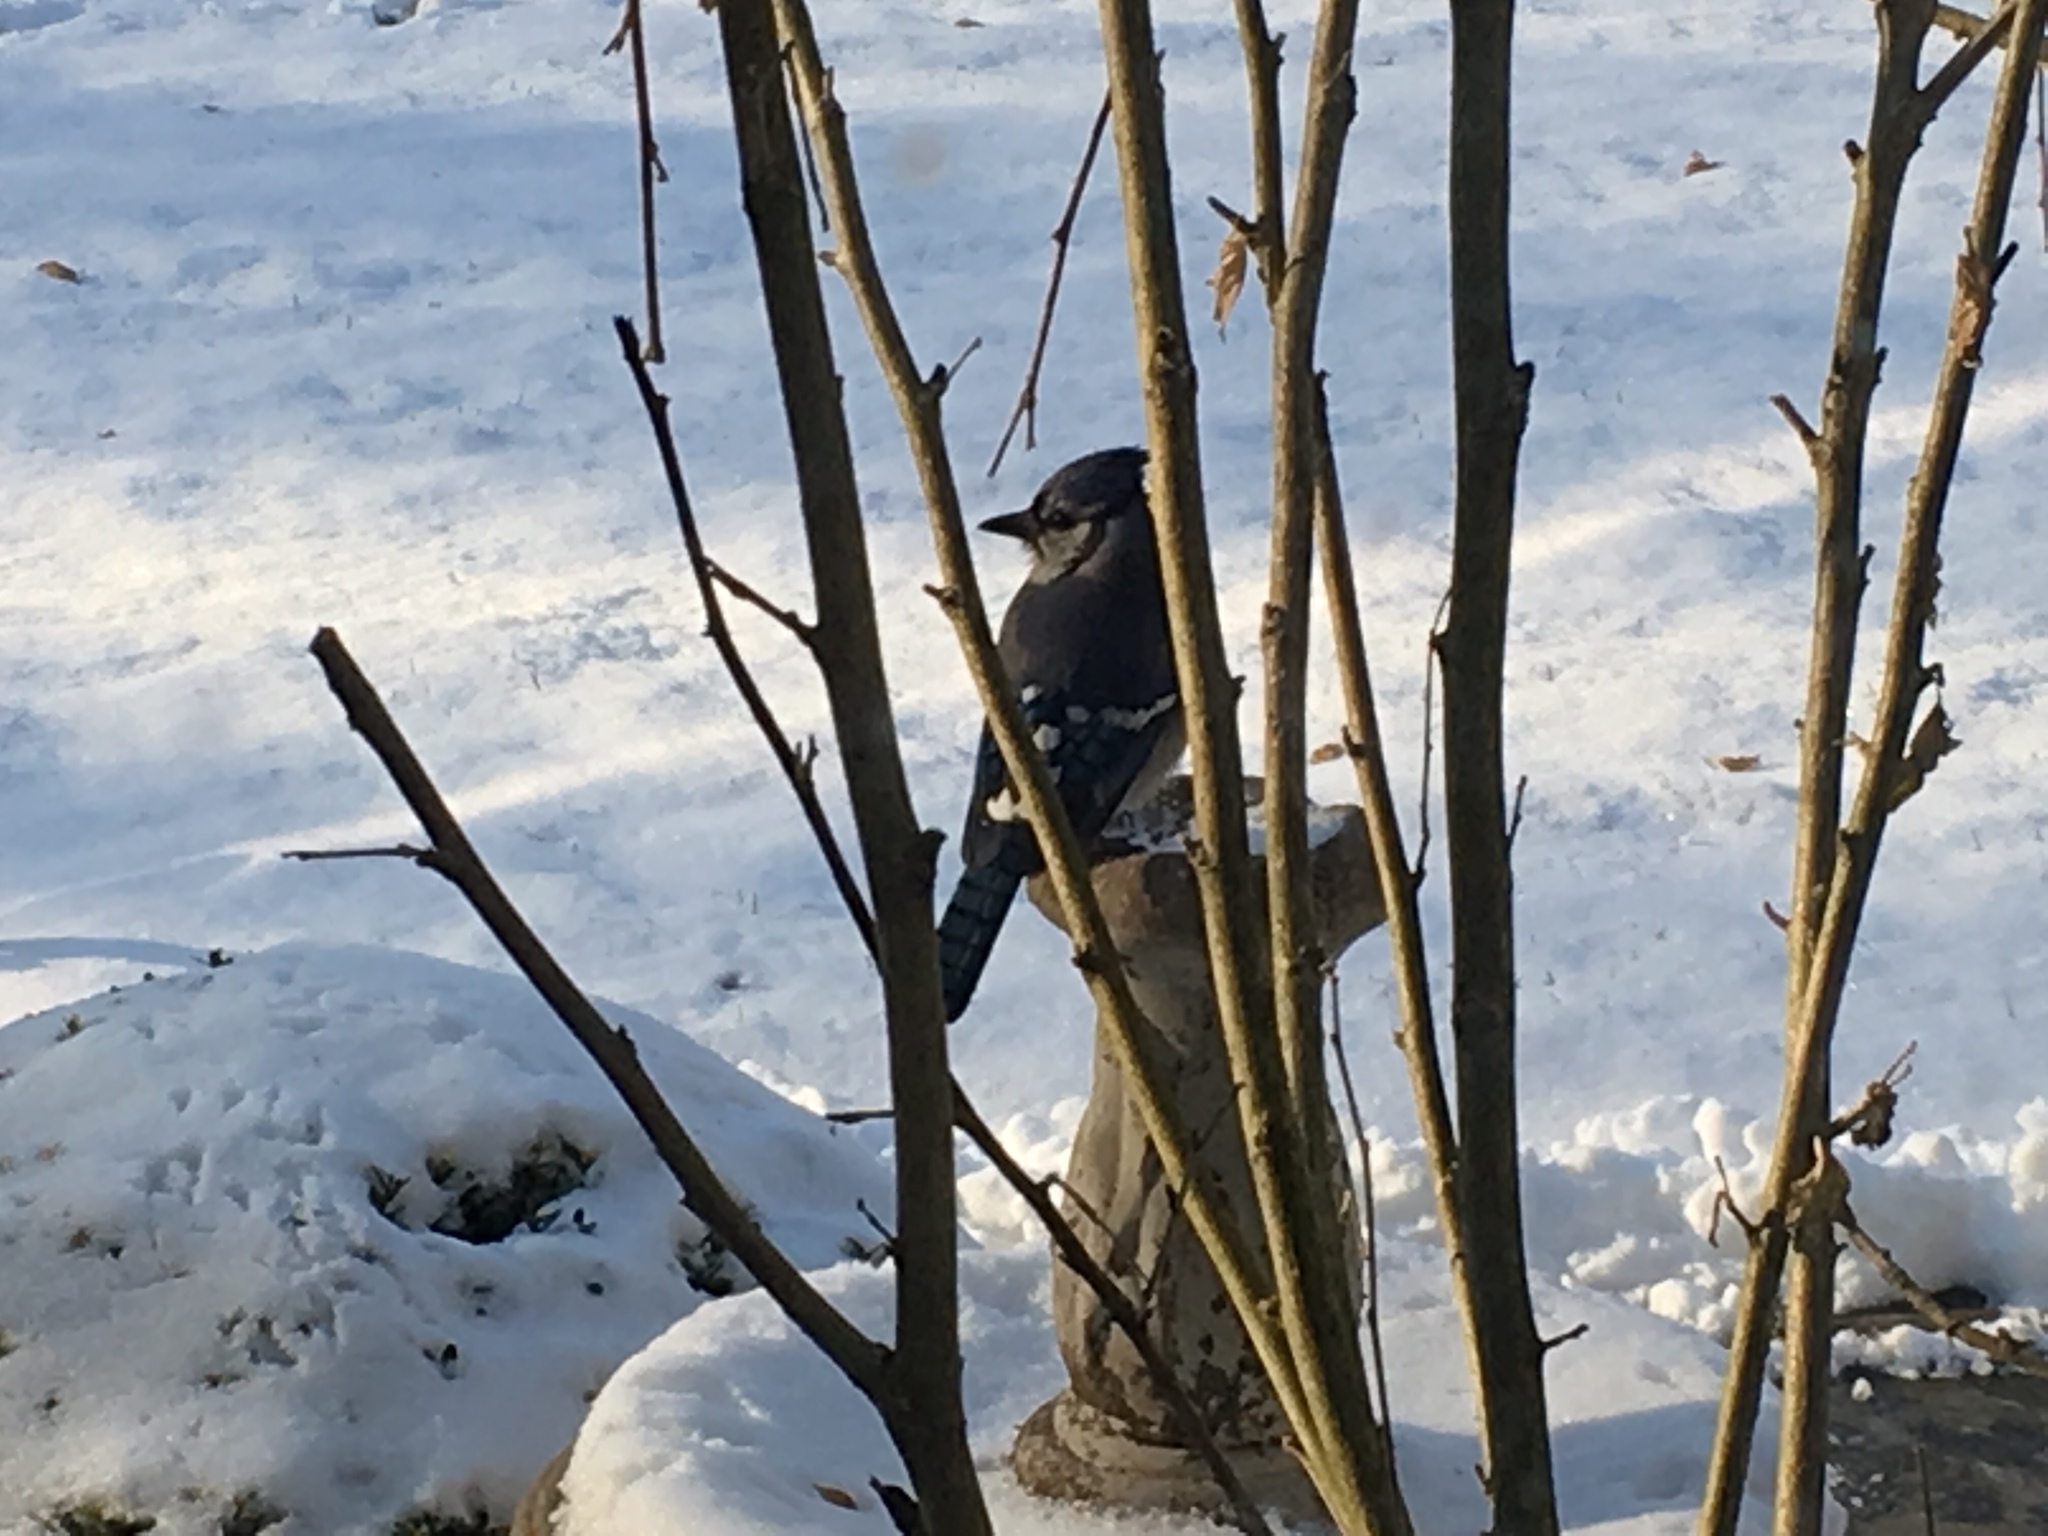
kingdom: Animalia
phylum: Chordata
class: Aves
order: Passeriformes
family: Corvidae
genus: Cyanocitta
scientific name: Cyanocitta cristata
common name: Blue jay
